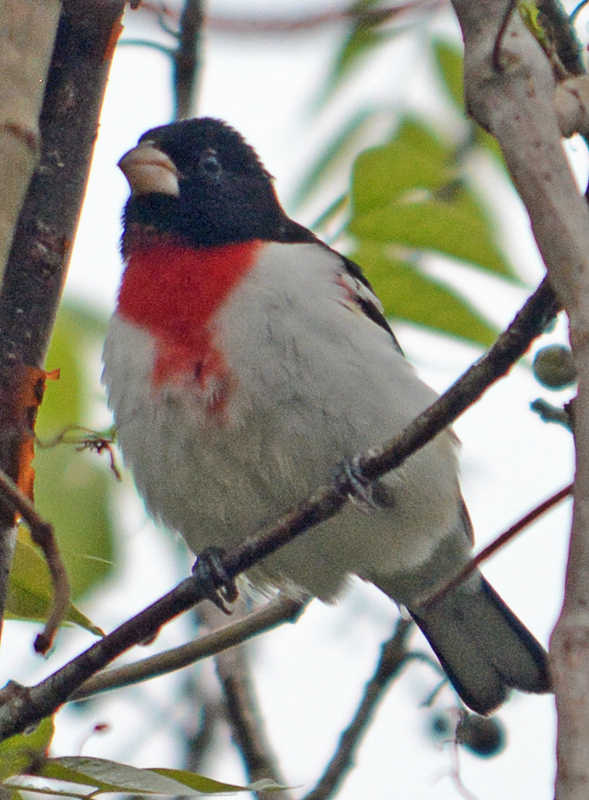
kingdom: Animalia
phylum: Chordata
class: Aves
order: Passeriformes
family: Cardinalidae
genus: Pheucticus
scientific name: Pheucticus ludovicianus
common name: Rose-breasted grosbeak
